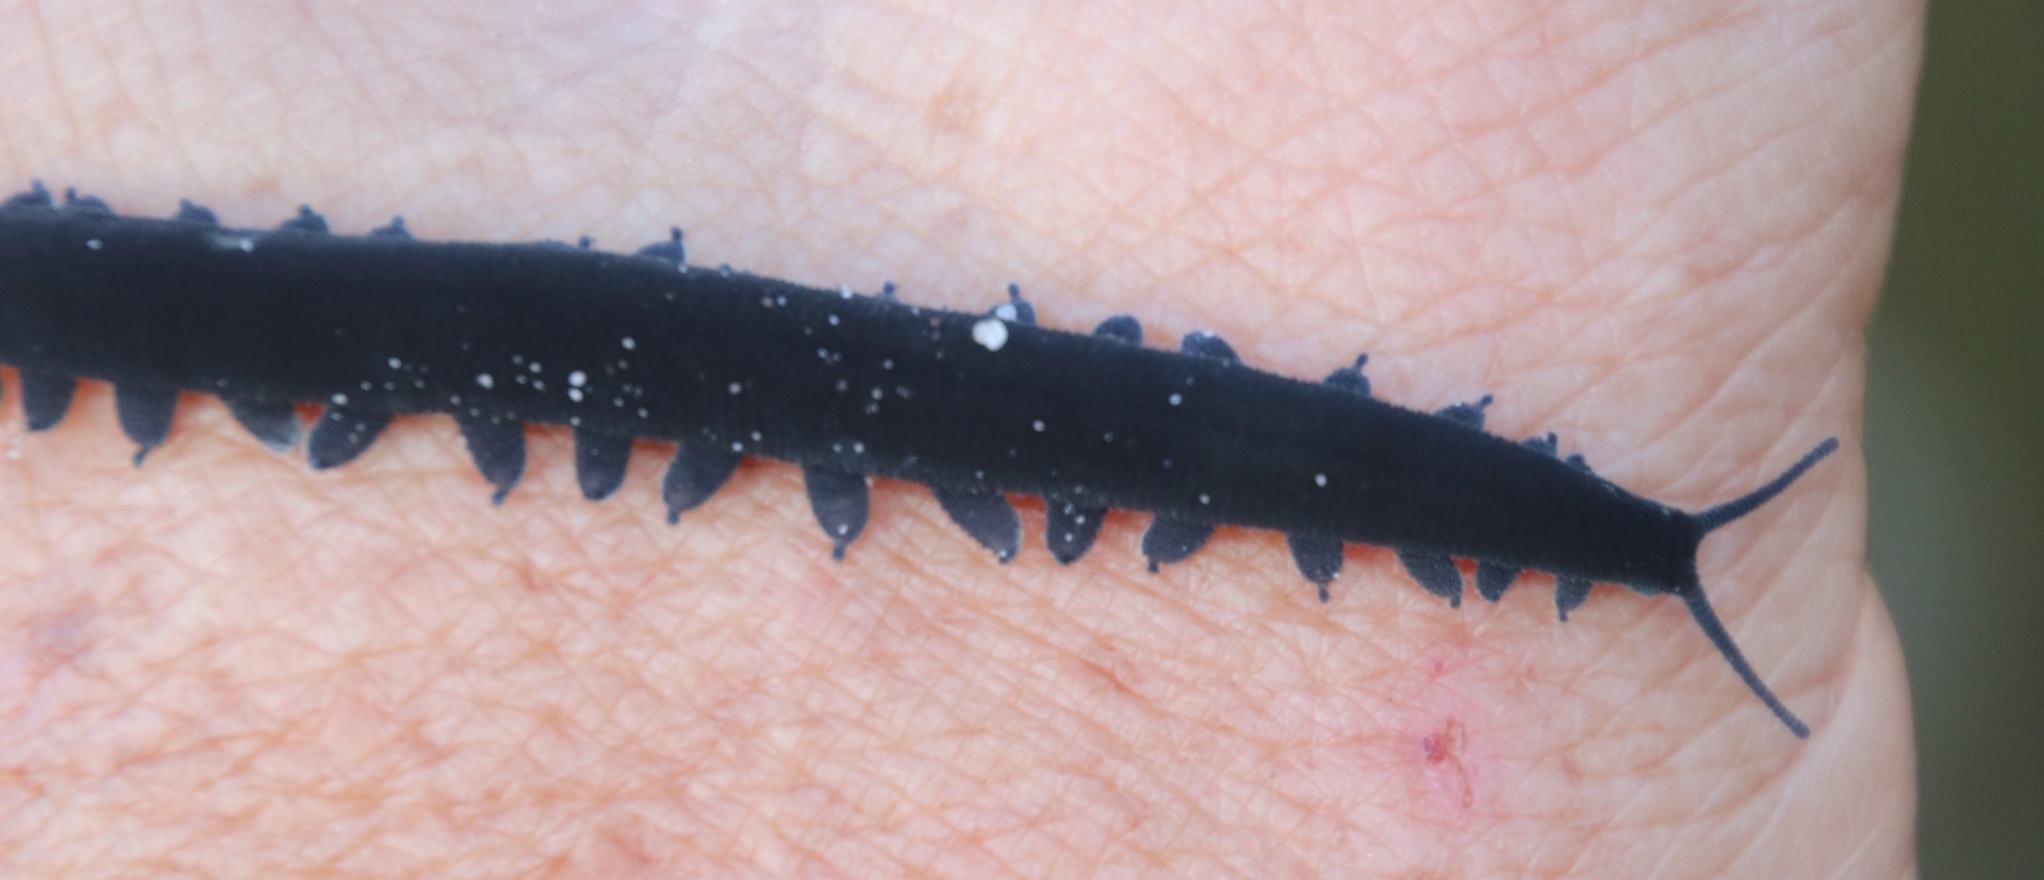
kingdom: Animalia
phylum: Onychophora
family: Peripatopsidae
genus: Peripatopsis
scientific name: Peripatopsis capensis
